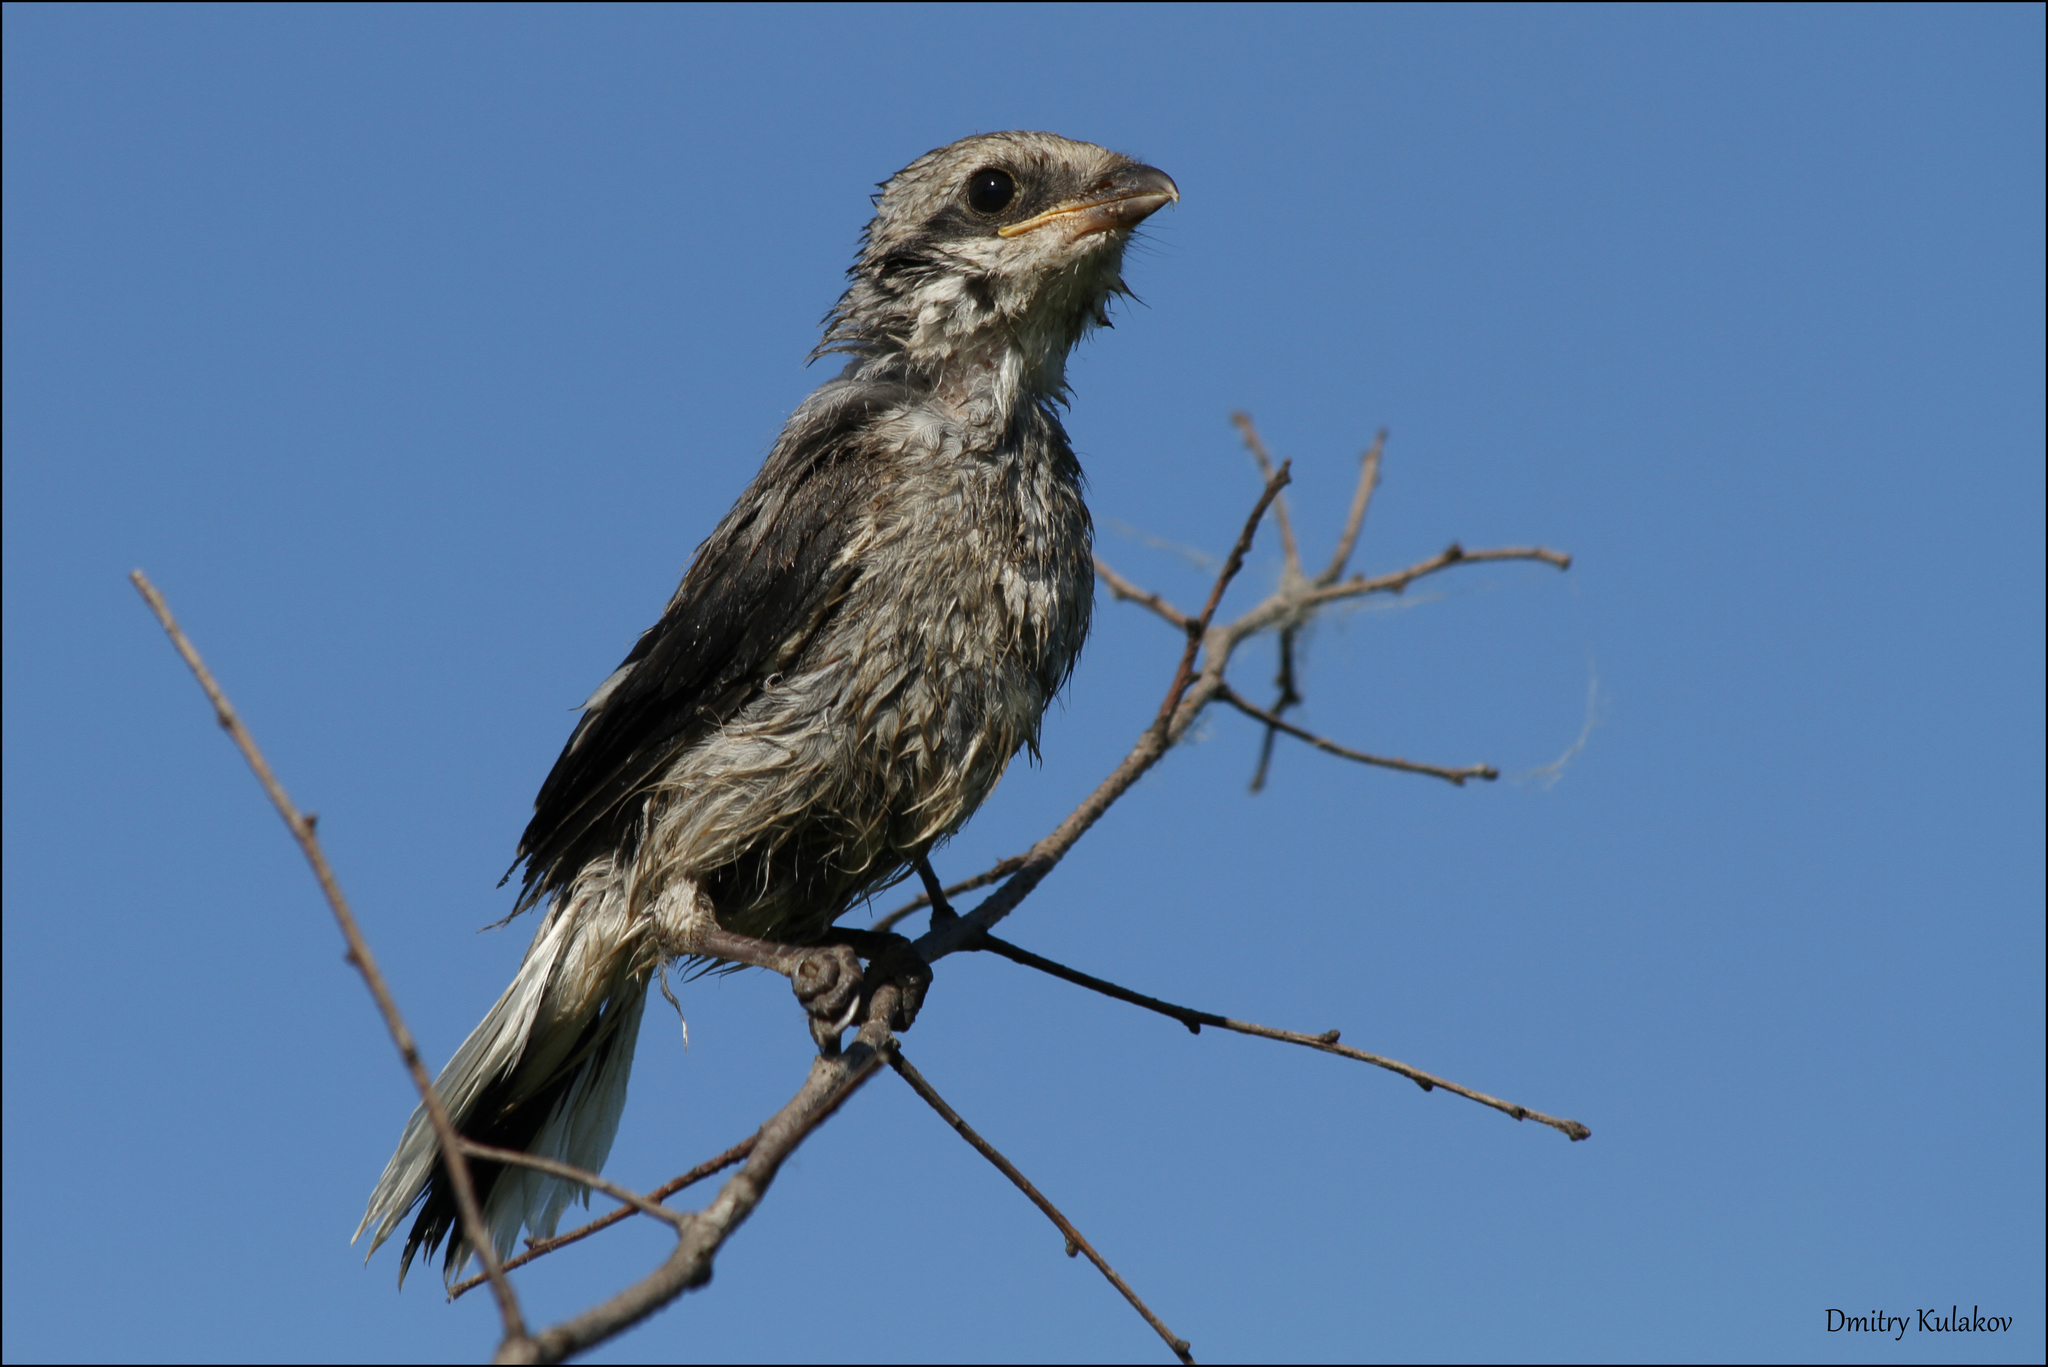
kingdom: Animalia
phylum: Chordata
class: Aves
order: Passeriformes
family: Laniidae
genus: Lanius
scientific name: Lanius excubitor
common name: Great grey shrike
